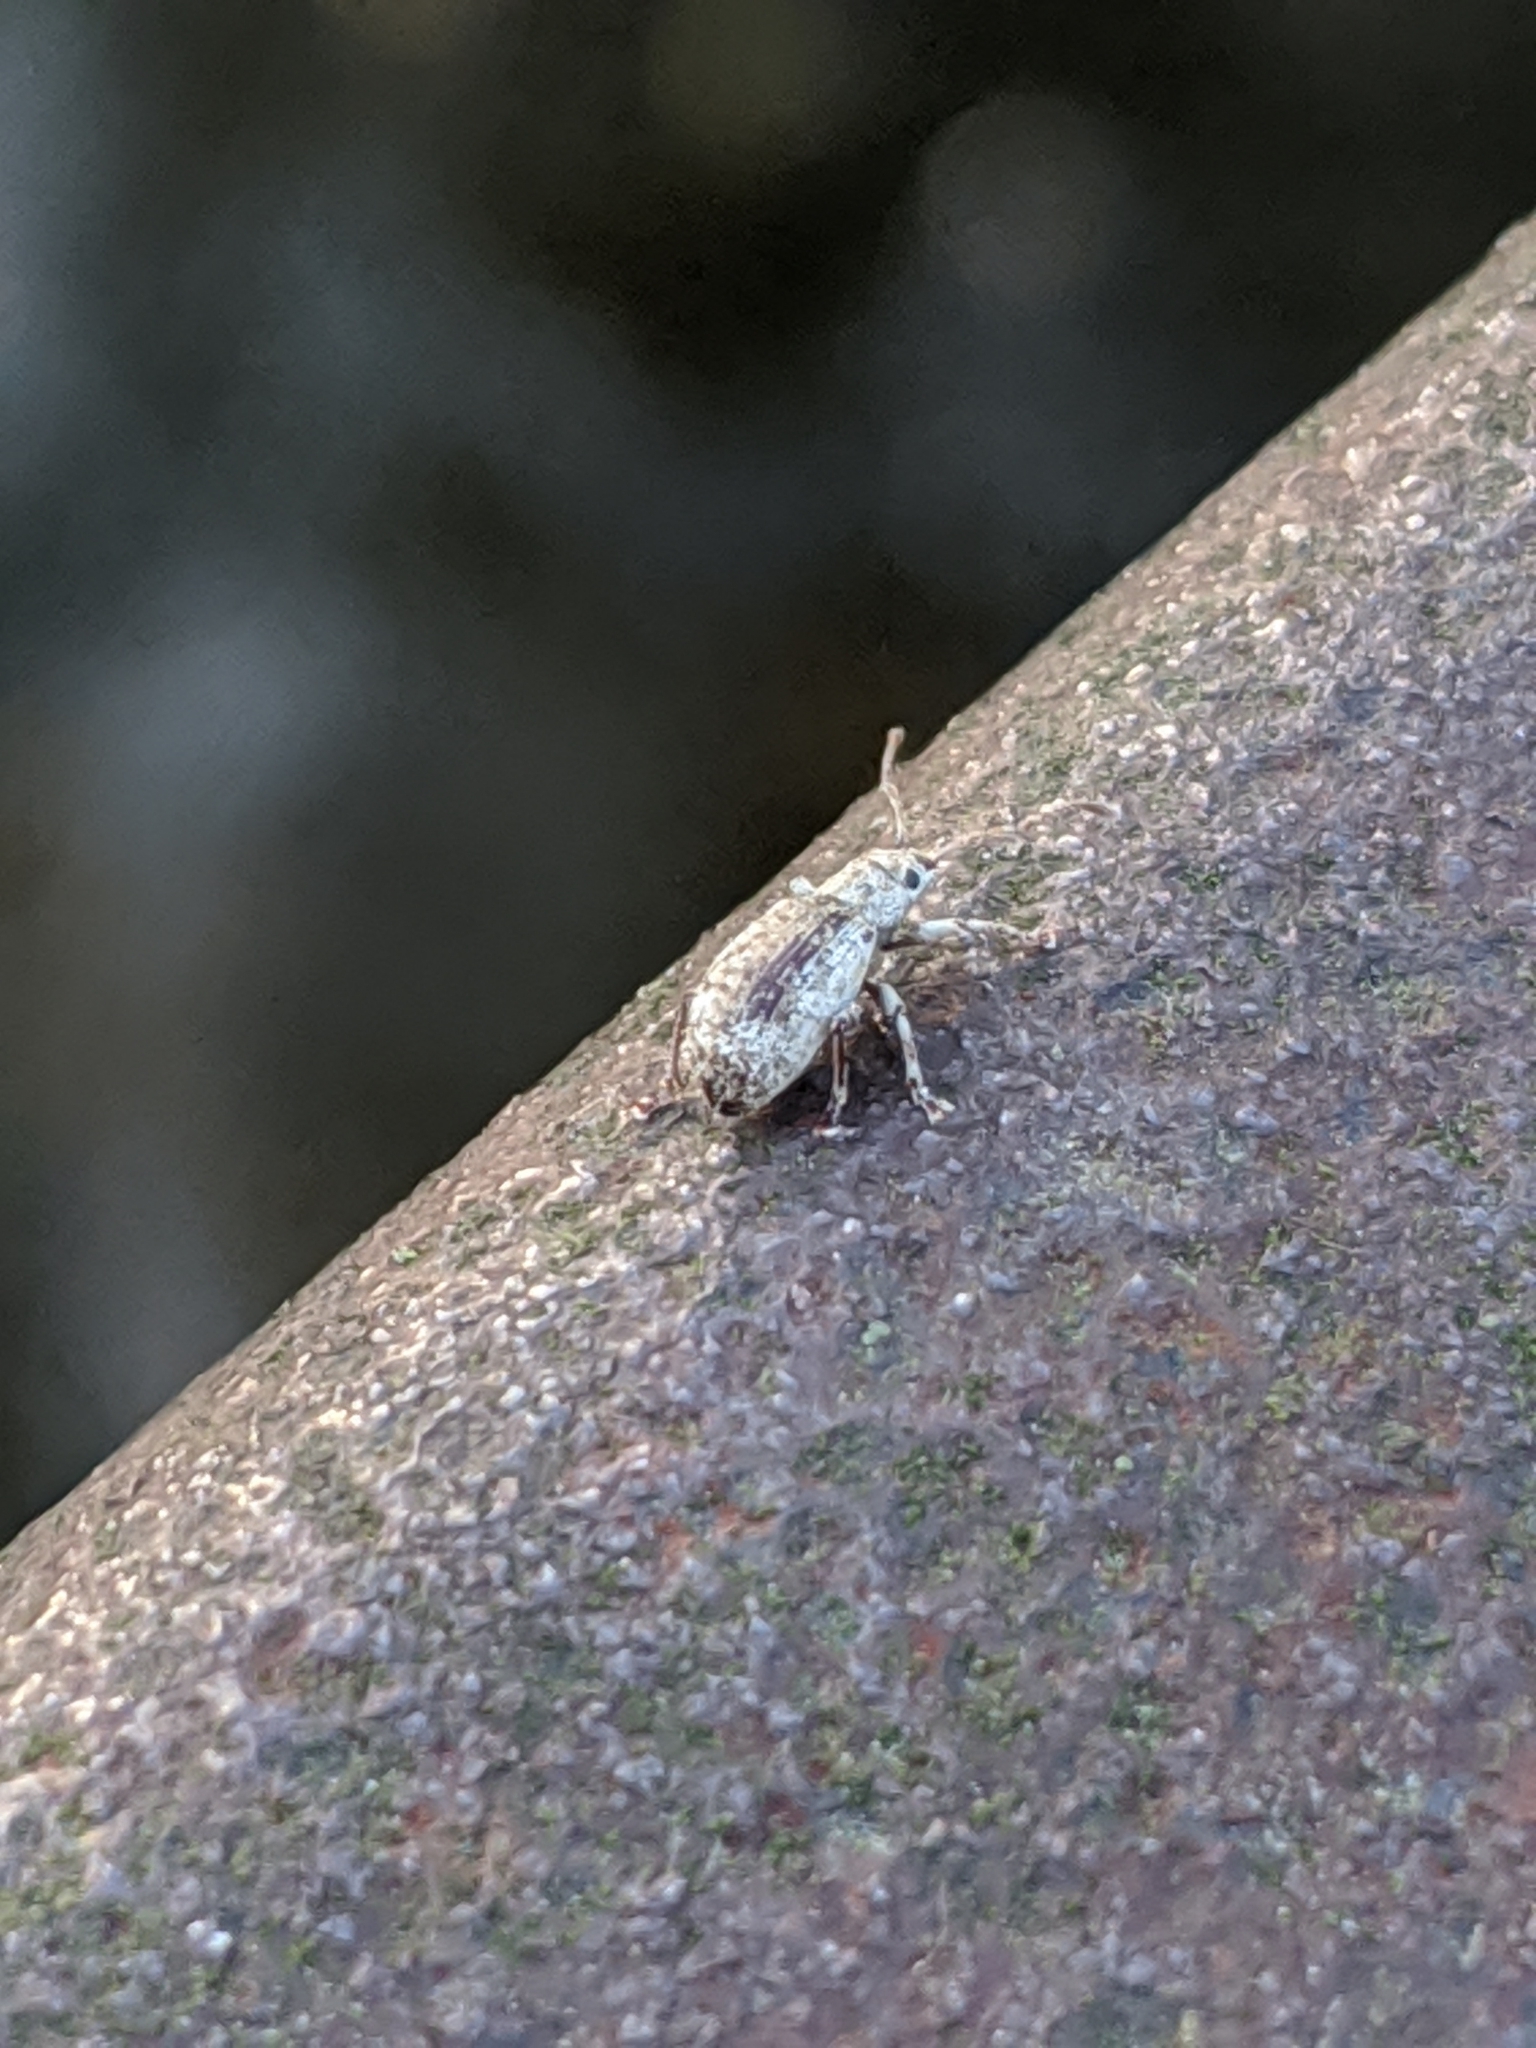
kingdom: Animalia
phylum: Arthropoda
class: Insecta
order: Coleoptera
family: Curculionidae
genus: Pseudoedophrys
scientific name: Pseudoedophrys hilleri
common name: Weevil
